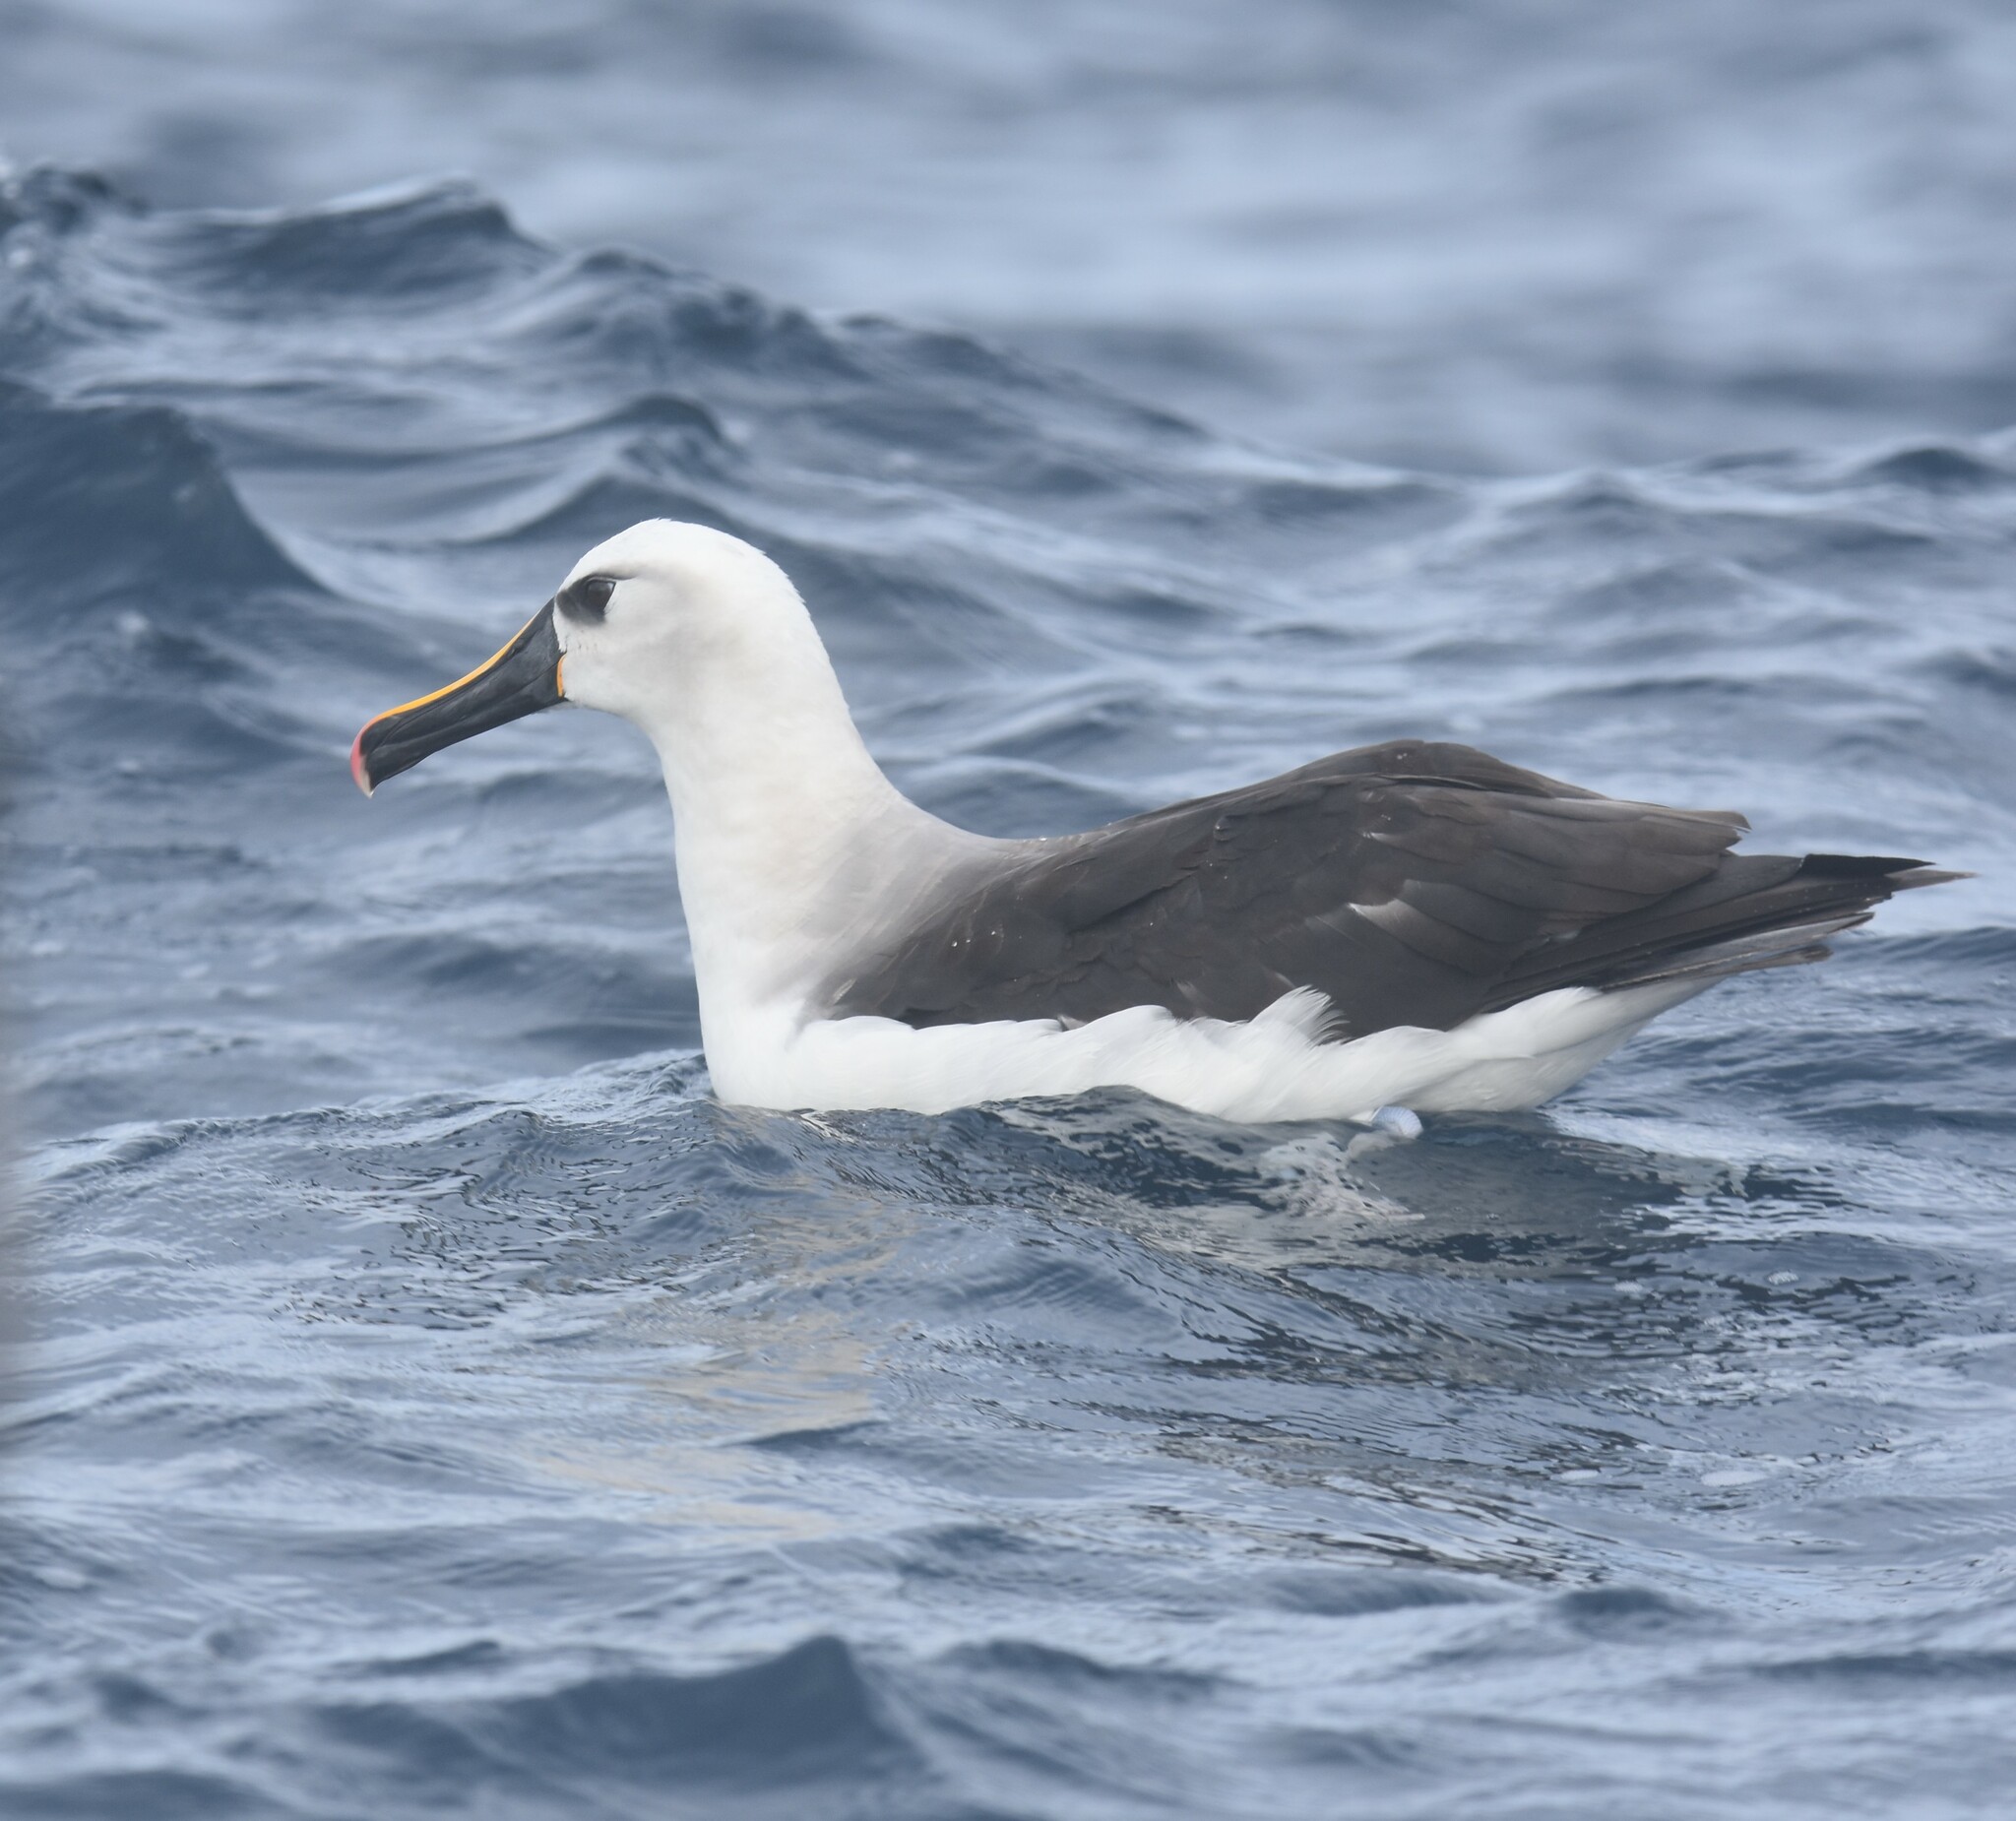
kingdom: Animalia
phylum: Chordata
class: Aves
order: Procellariiformes
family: Diomedeidae
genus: Thalassarche
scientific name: Thalassarche chlororhynchos
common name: Atlantic yellow-nosed albatross
